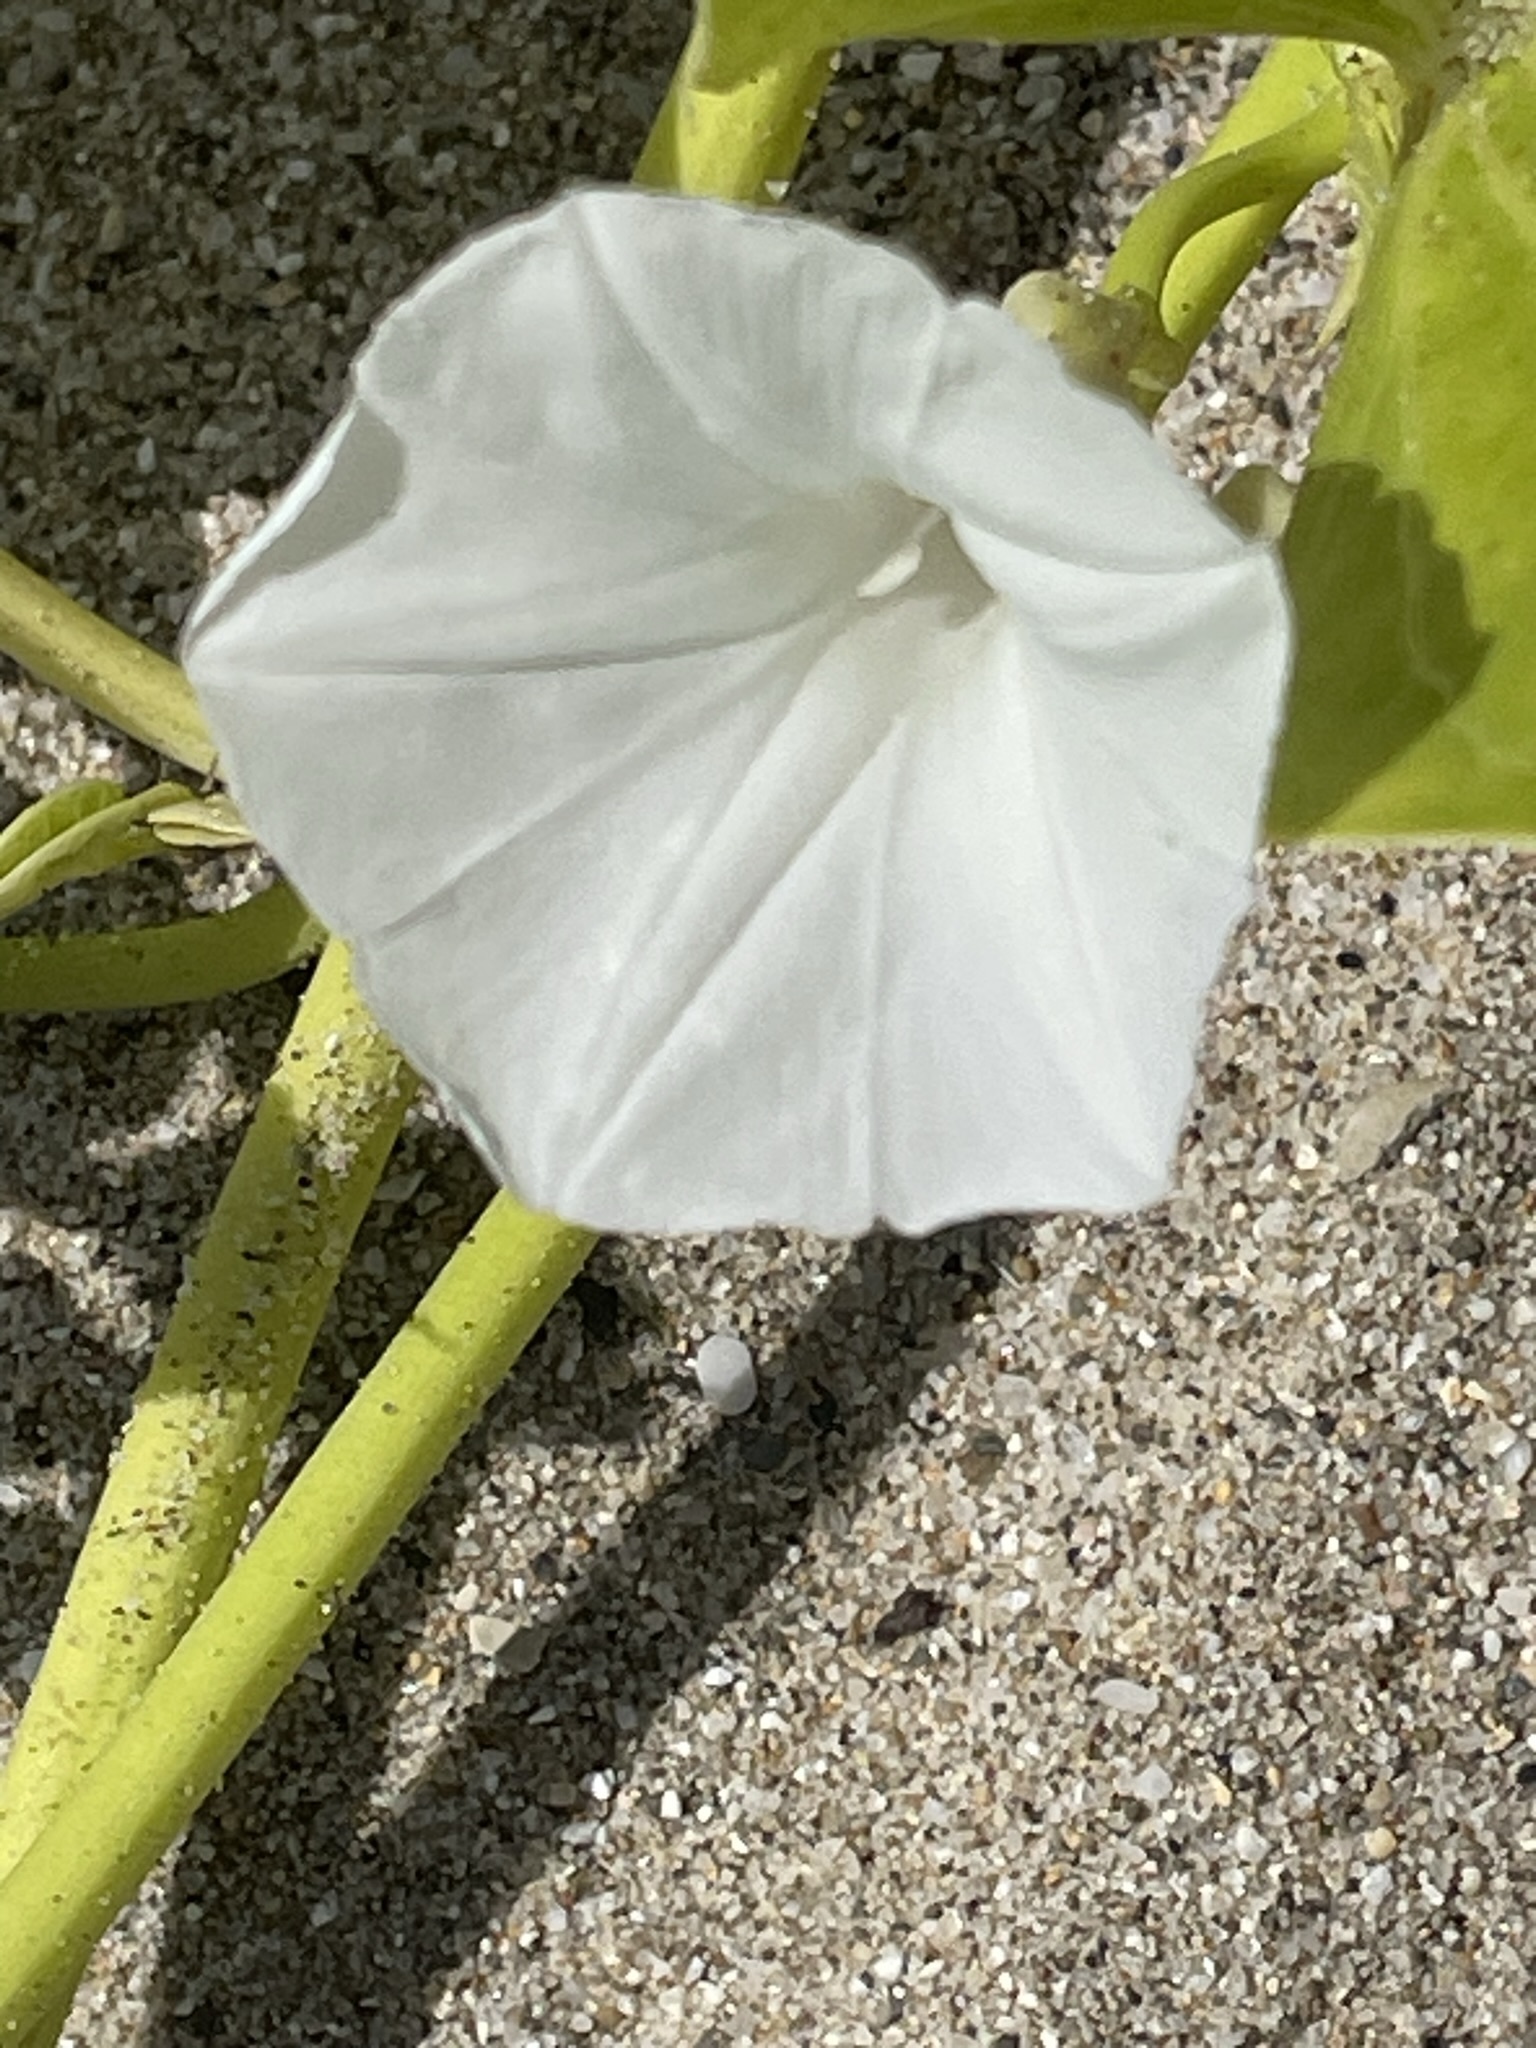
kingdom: Plantae
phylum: Tracheophyta
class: Magnoliopsida
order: Solanales
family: Convolvulaceae
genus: Ipomoea
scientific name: Ipomoea asarifolia
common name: Ginger-leaf morning-glory
